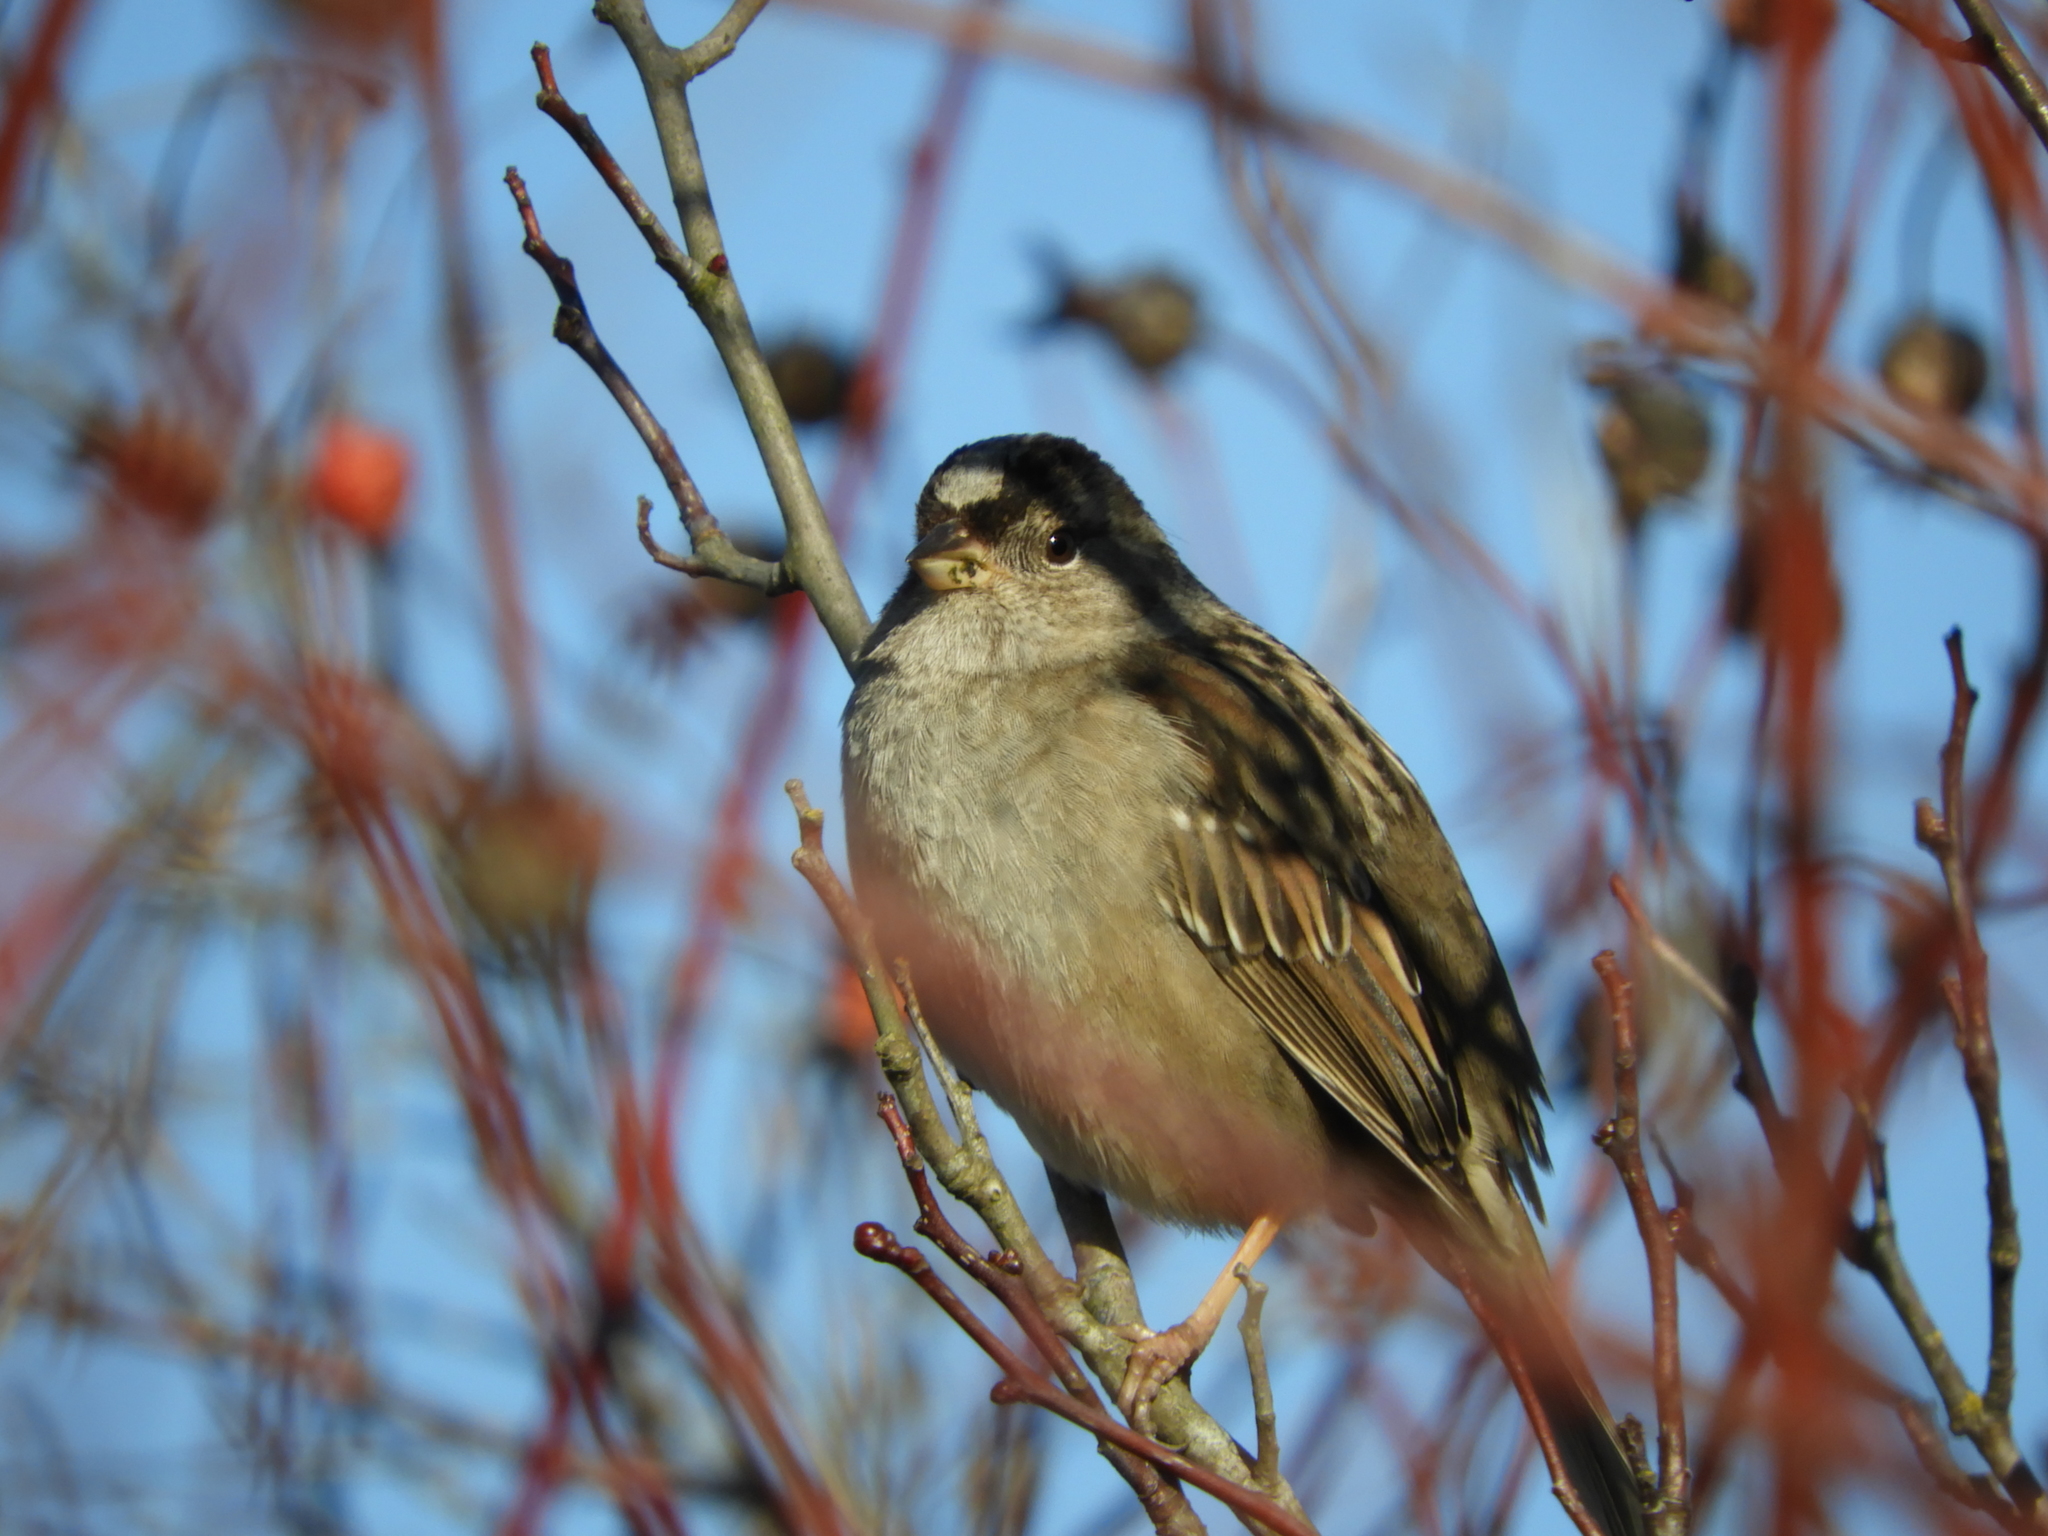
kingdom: Animalia
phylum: Chordata
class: Aves
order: Passeriformes
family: Passerellidae
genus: Zonotrichia
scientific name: Zonotrichia atricapilla
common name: Golden-crowned sparrow
